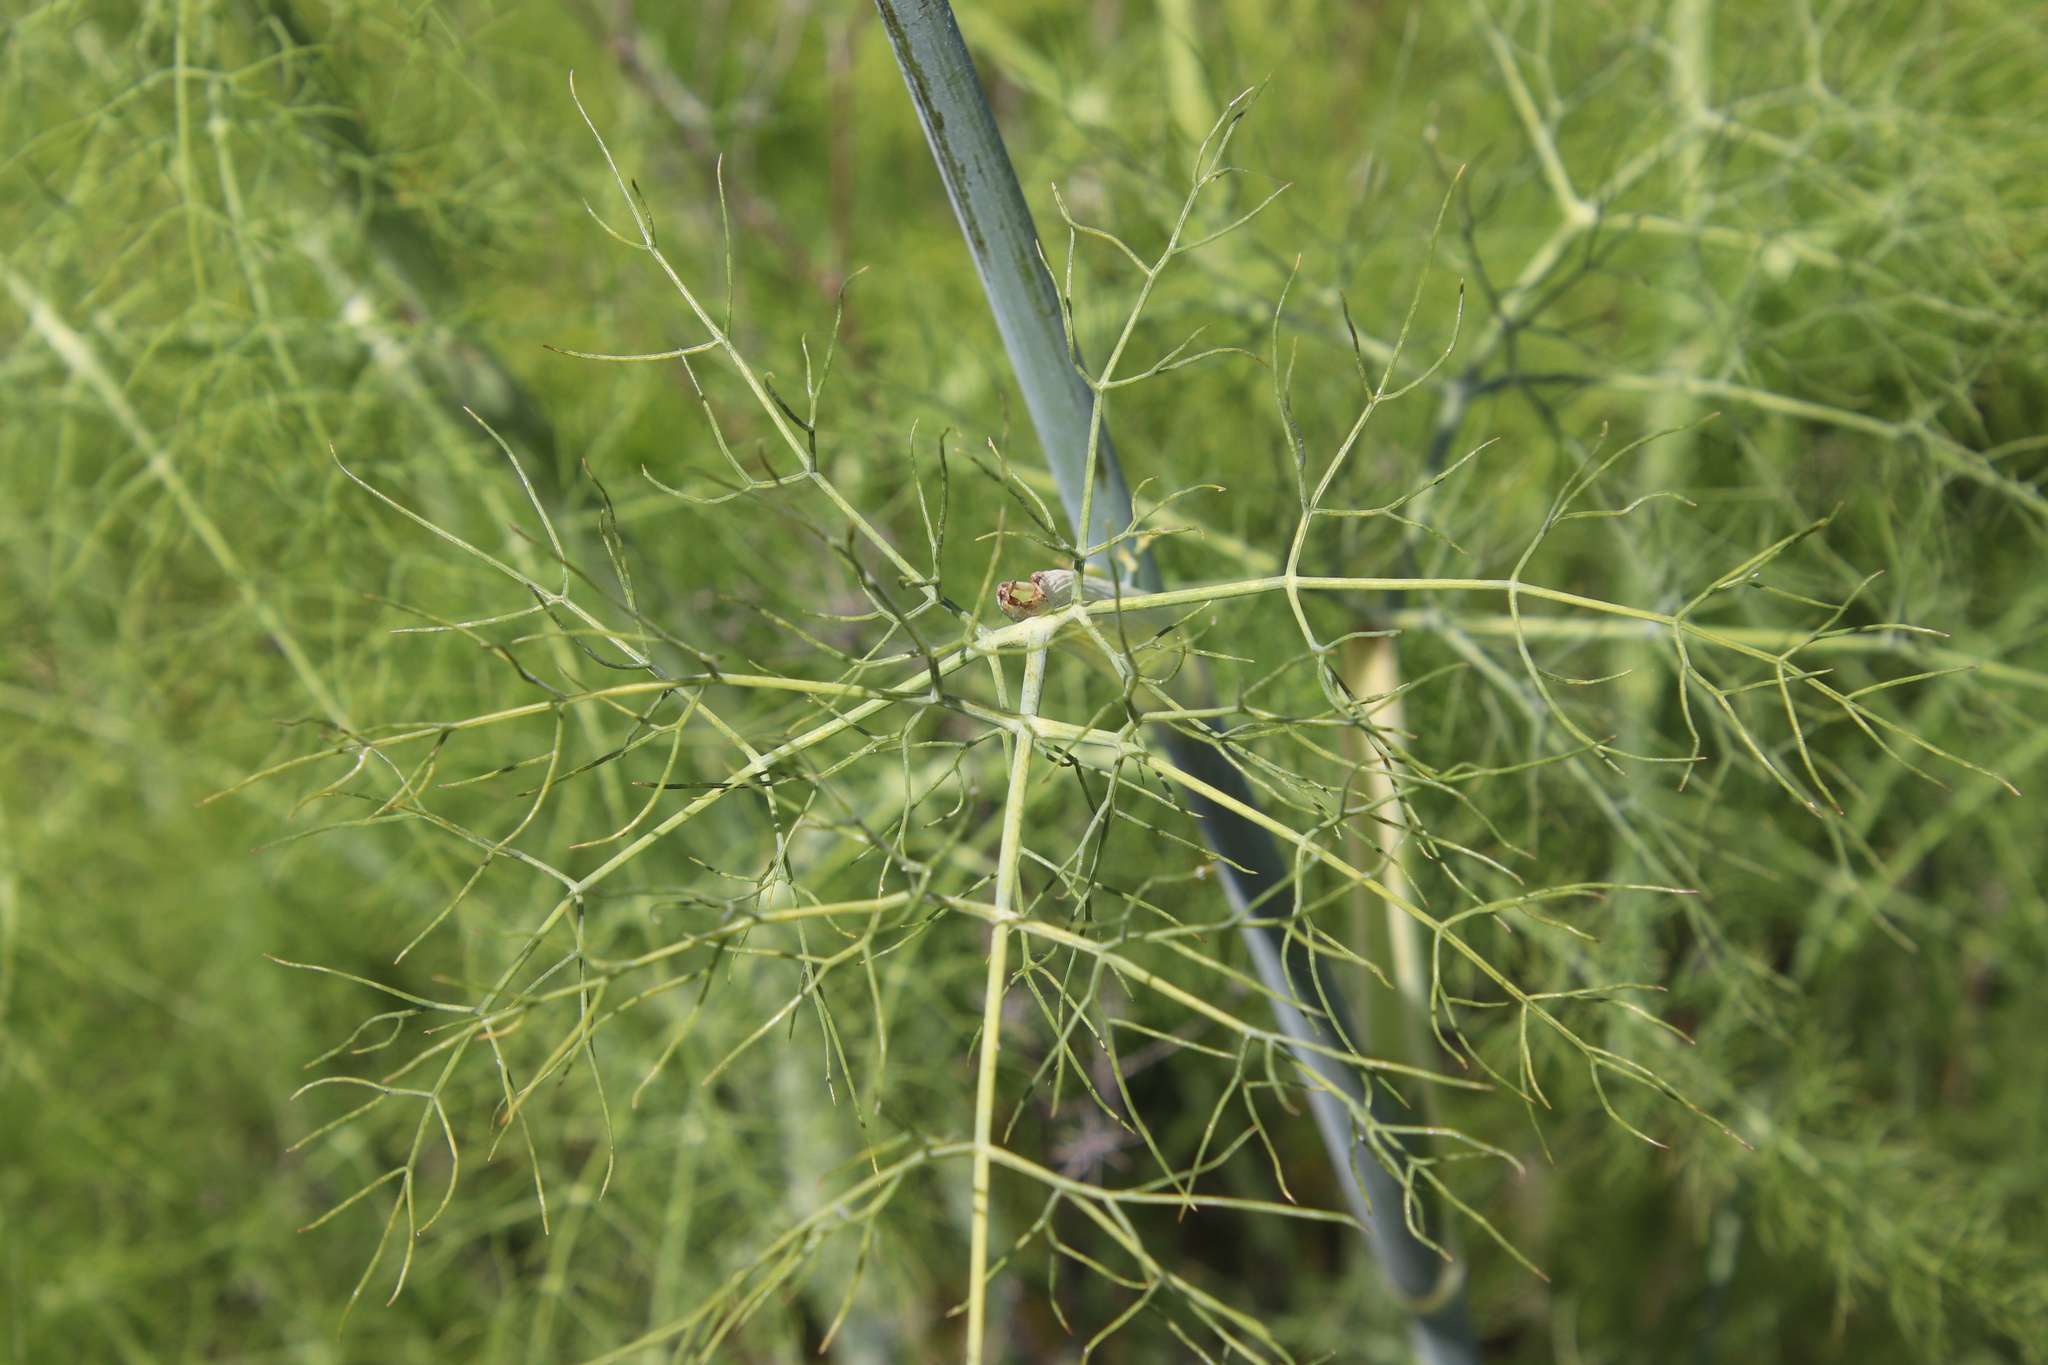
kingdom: Plantae
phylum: Tracheophyta
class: Magnoliopsida
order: Apiales
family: Apiaceae
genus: Foeniculum
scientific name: Foeniculum vulgare
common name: Fennel
